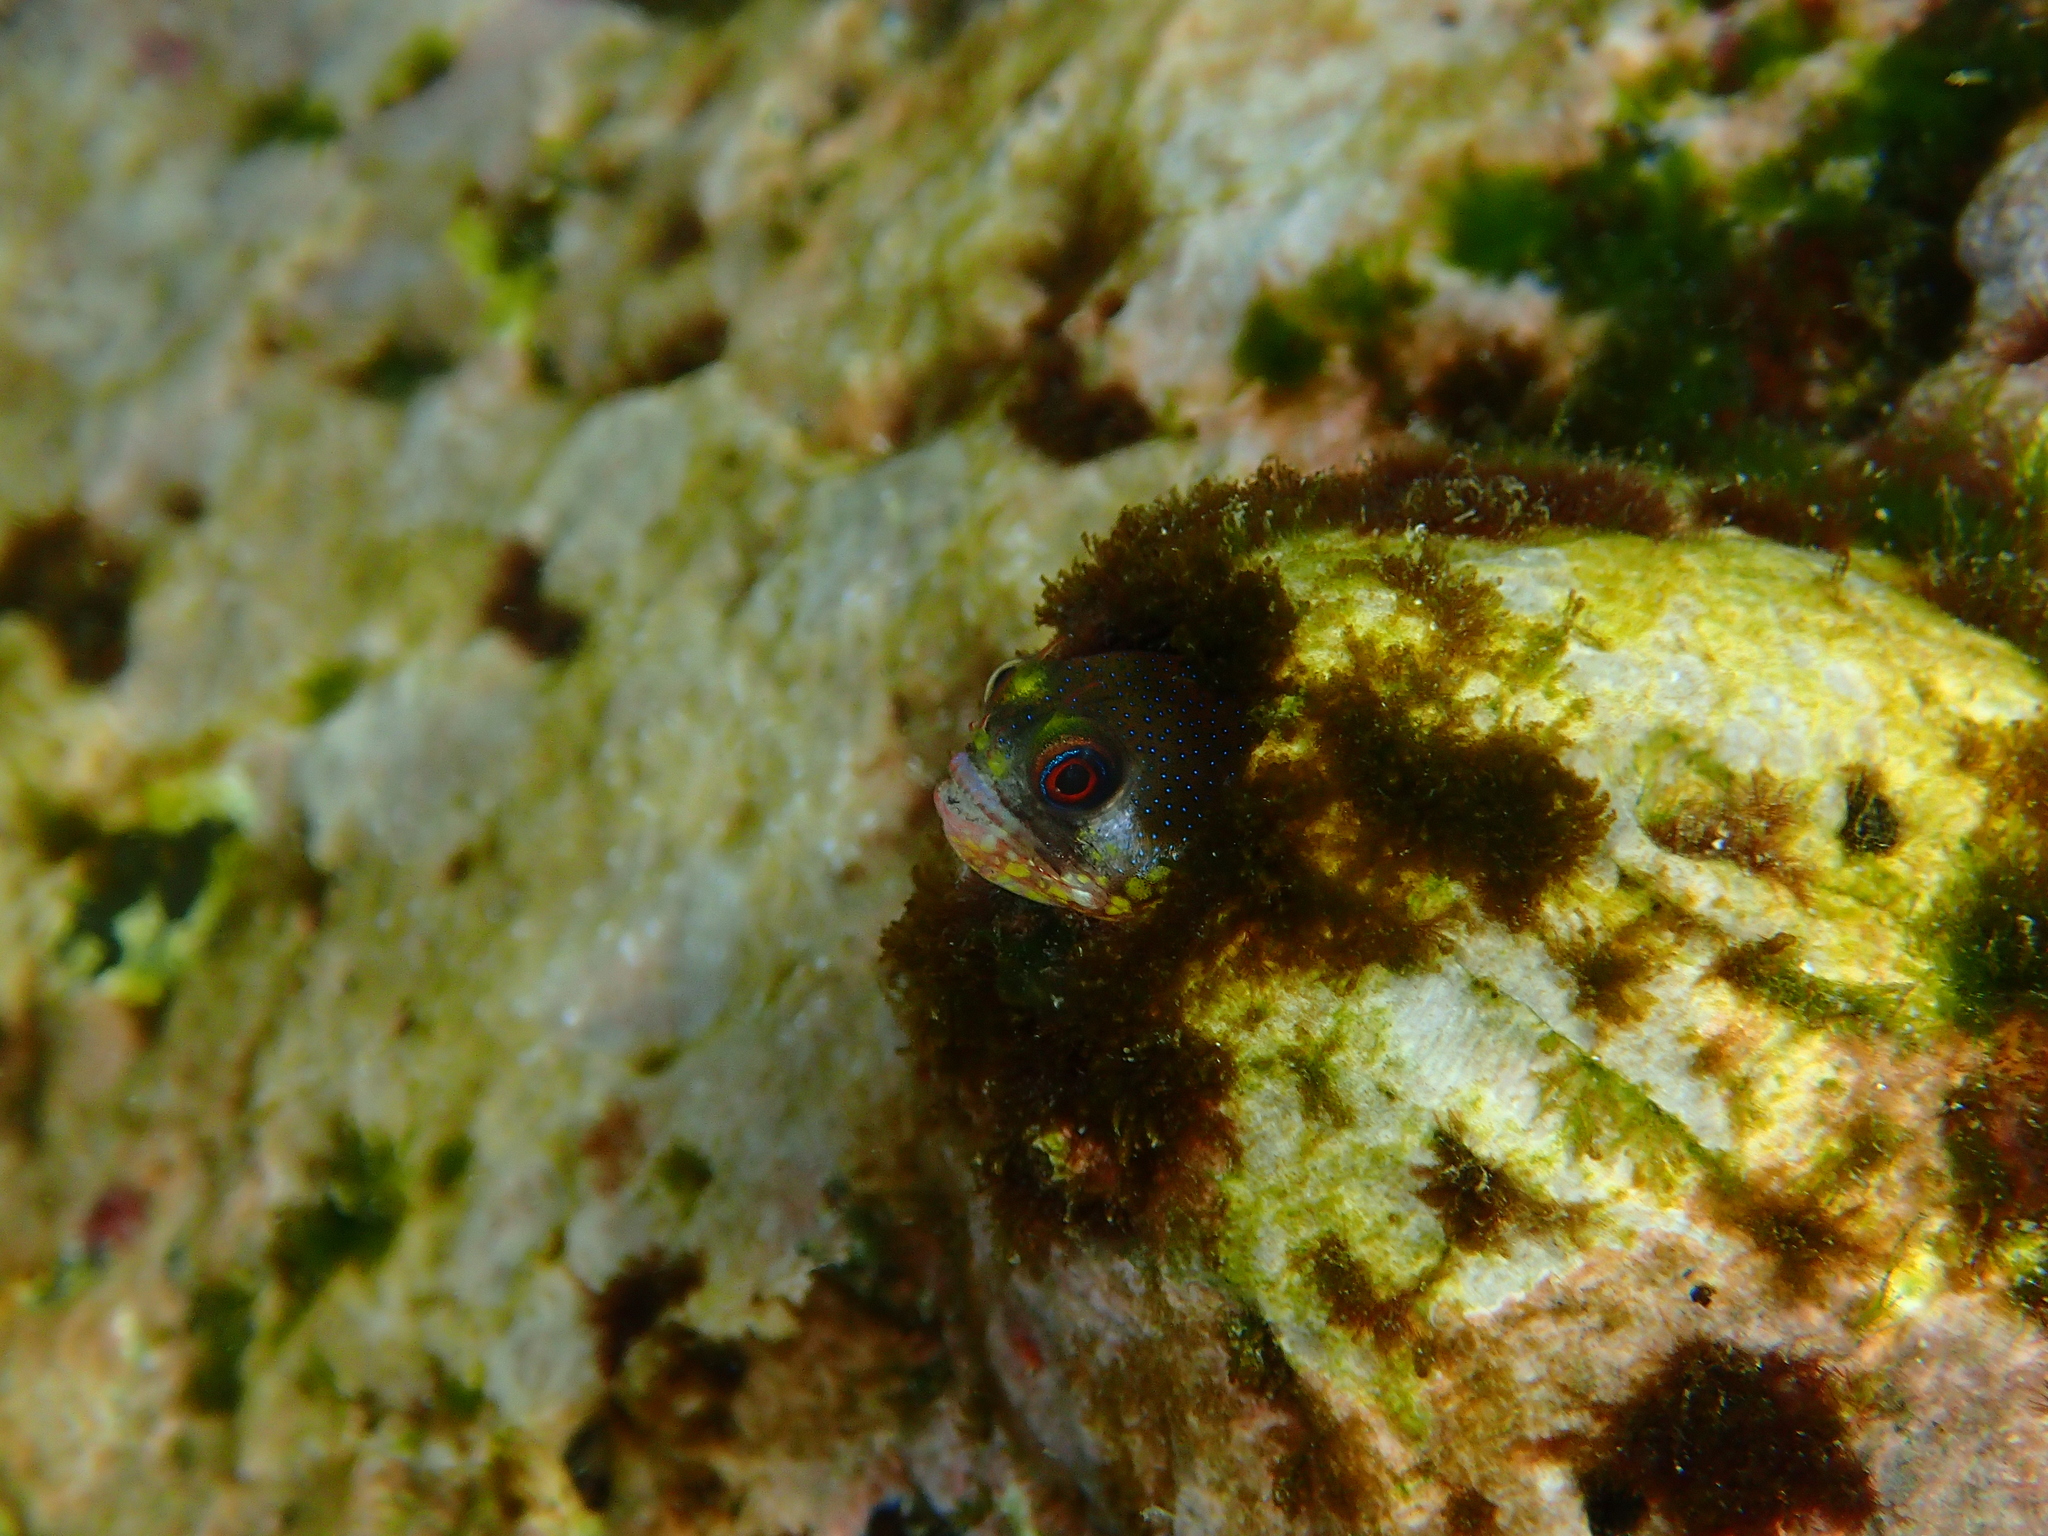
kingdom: Animalia
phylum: Chordata
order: Perciformes
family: Chaenopsidae
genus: Acanthemblemaria
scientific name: Acanthemblemaria castroi
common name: Galápagos barnacle blenny
